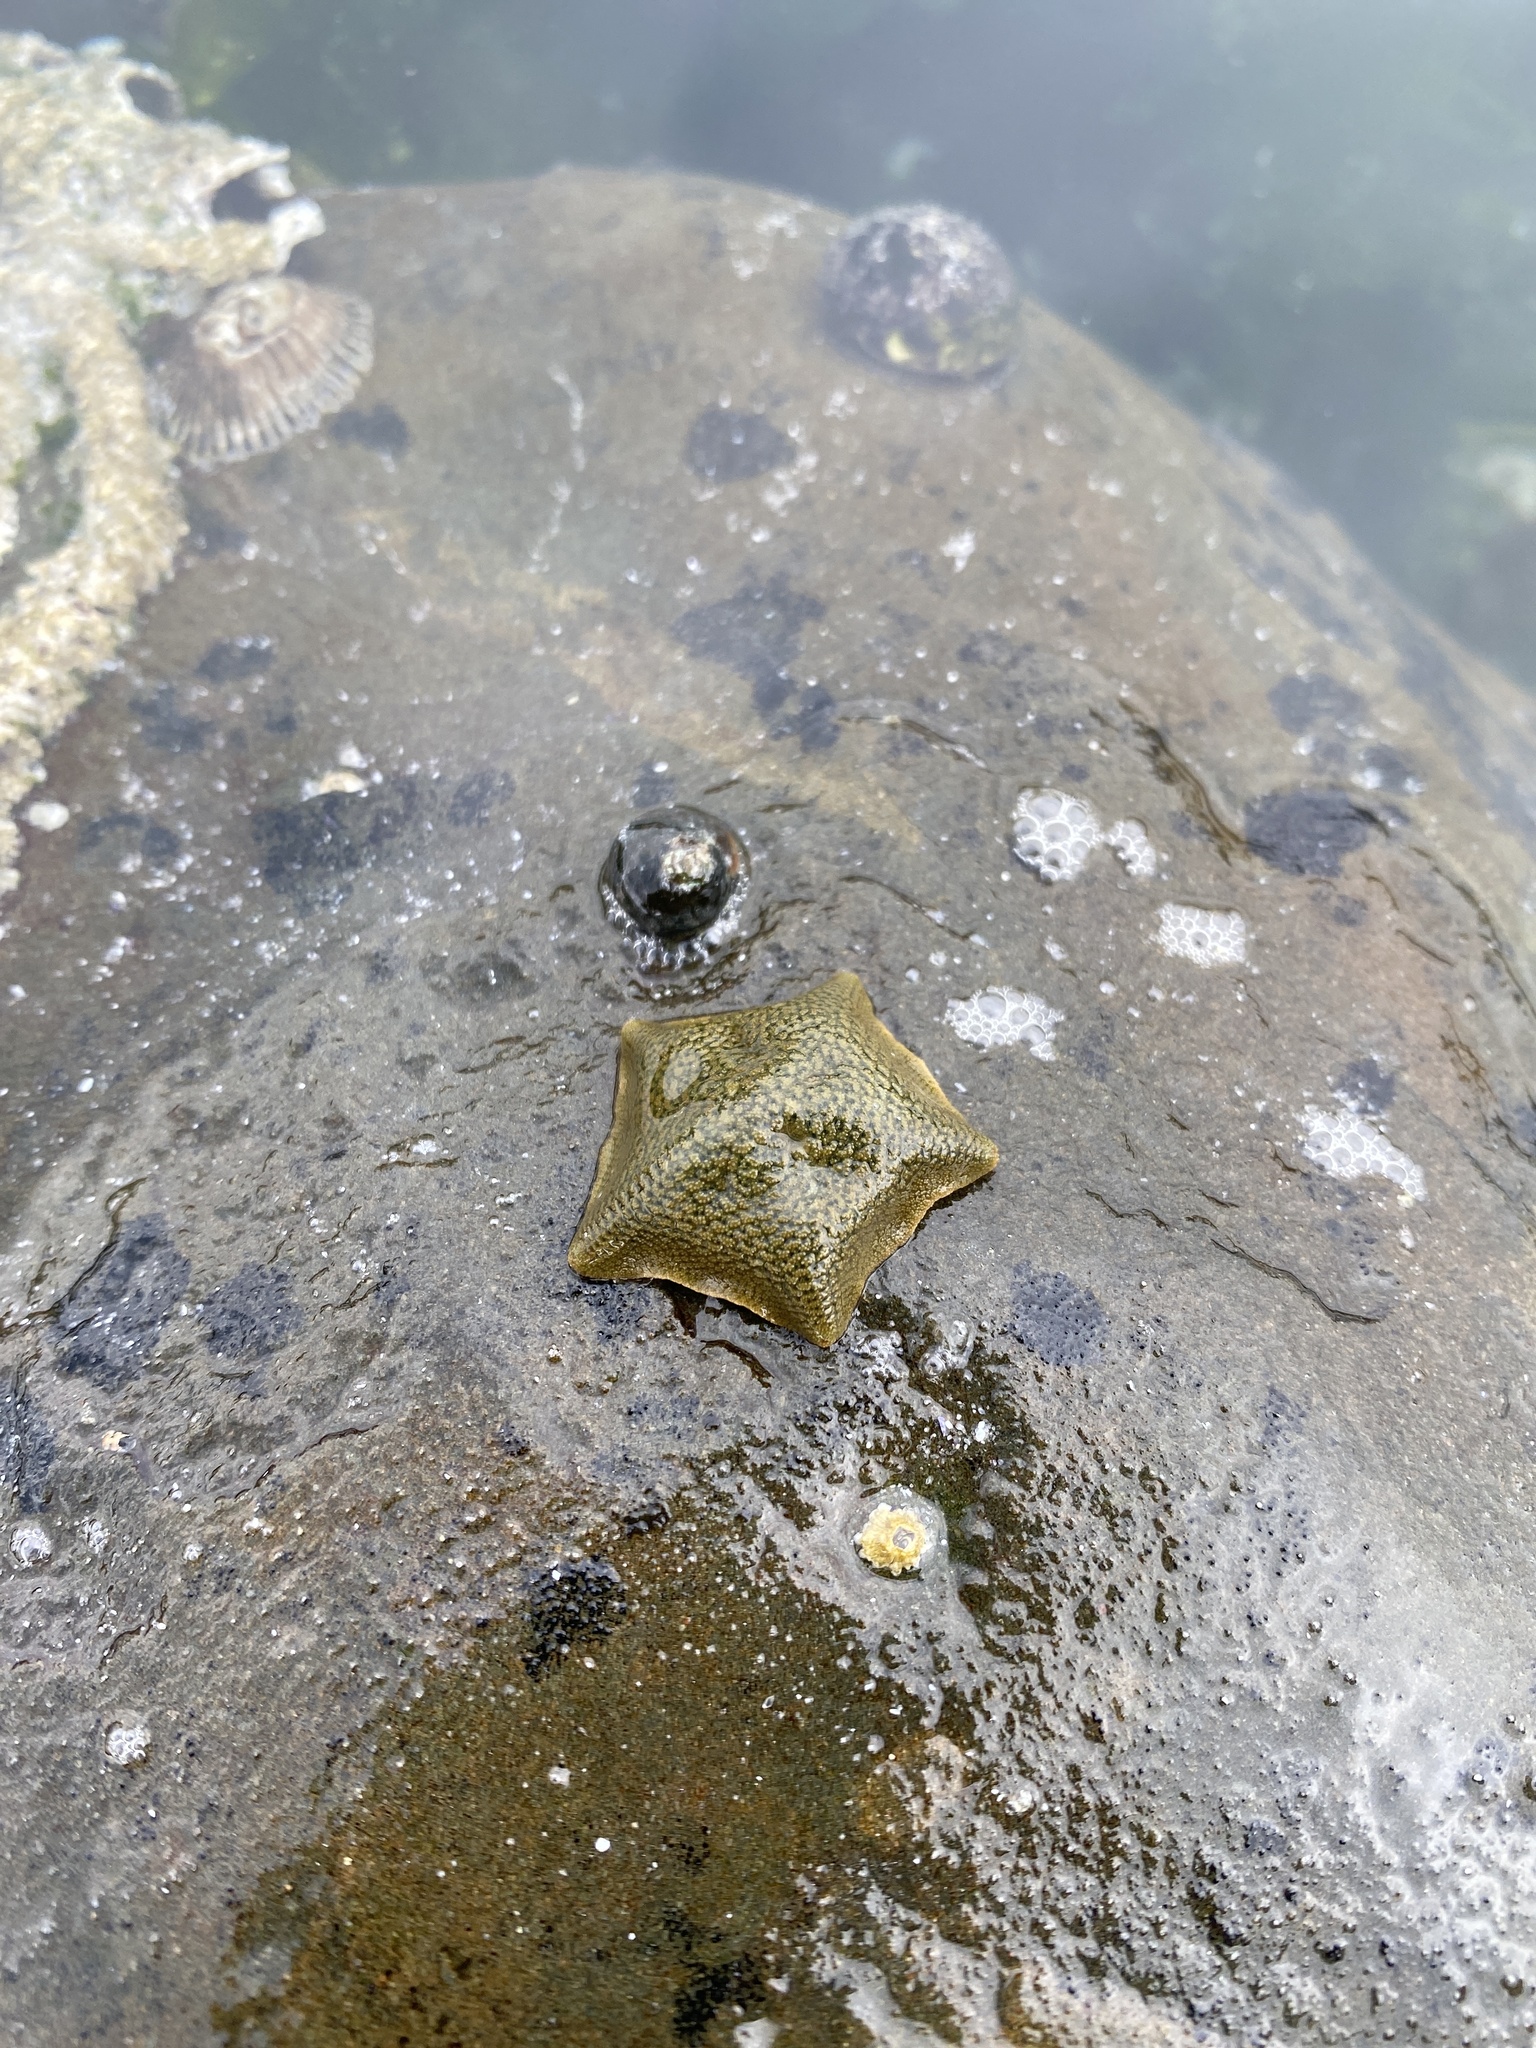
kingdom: Animalia
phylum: Echinodermata
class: Asteroidea
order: Valvatida
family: Asterinidae
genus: Parvulastra
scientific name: Parvulastra exigua
